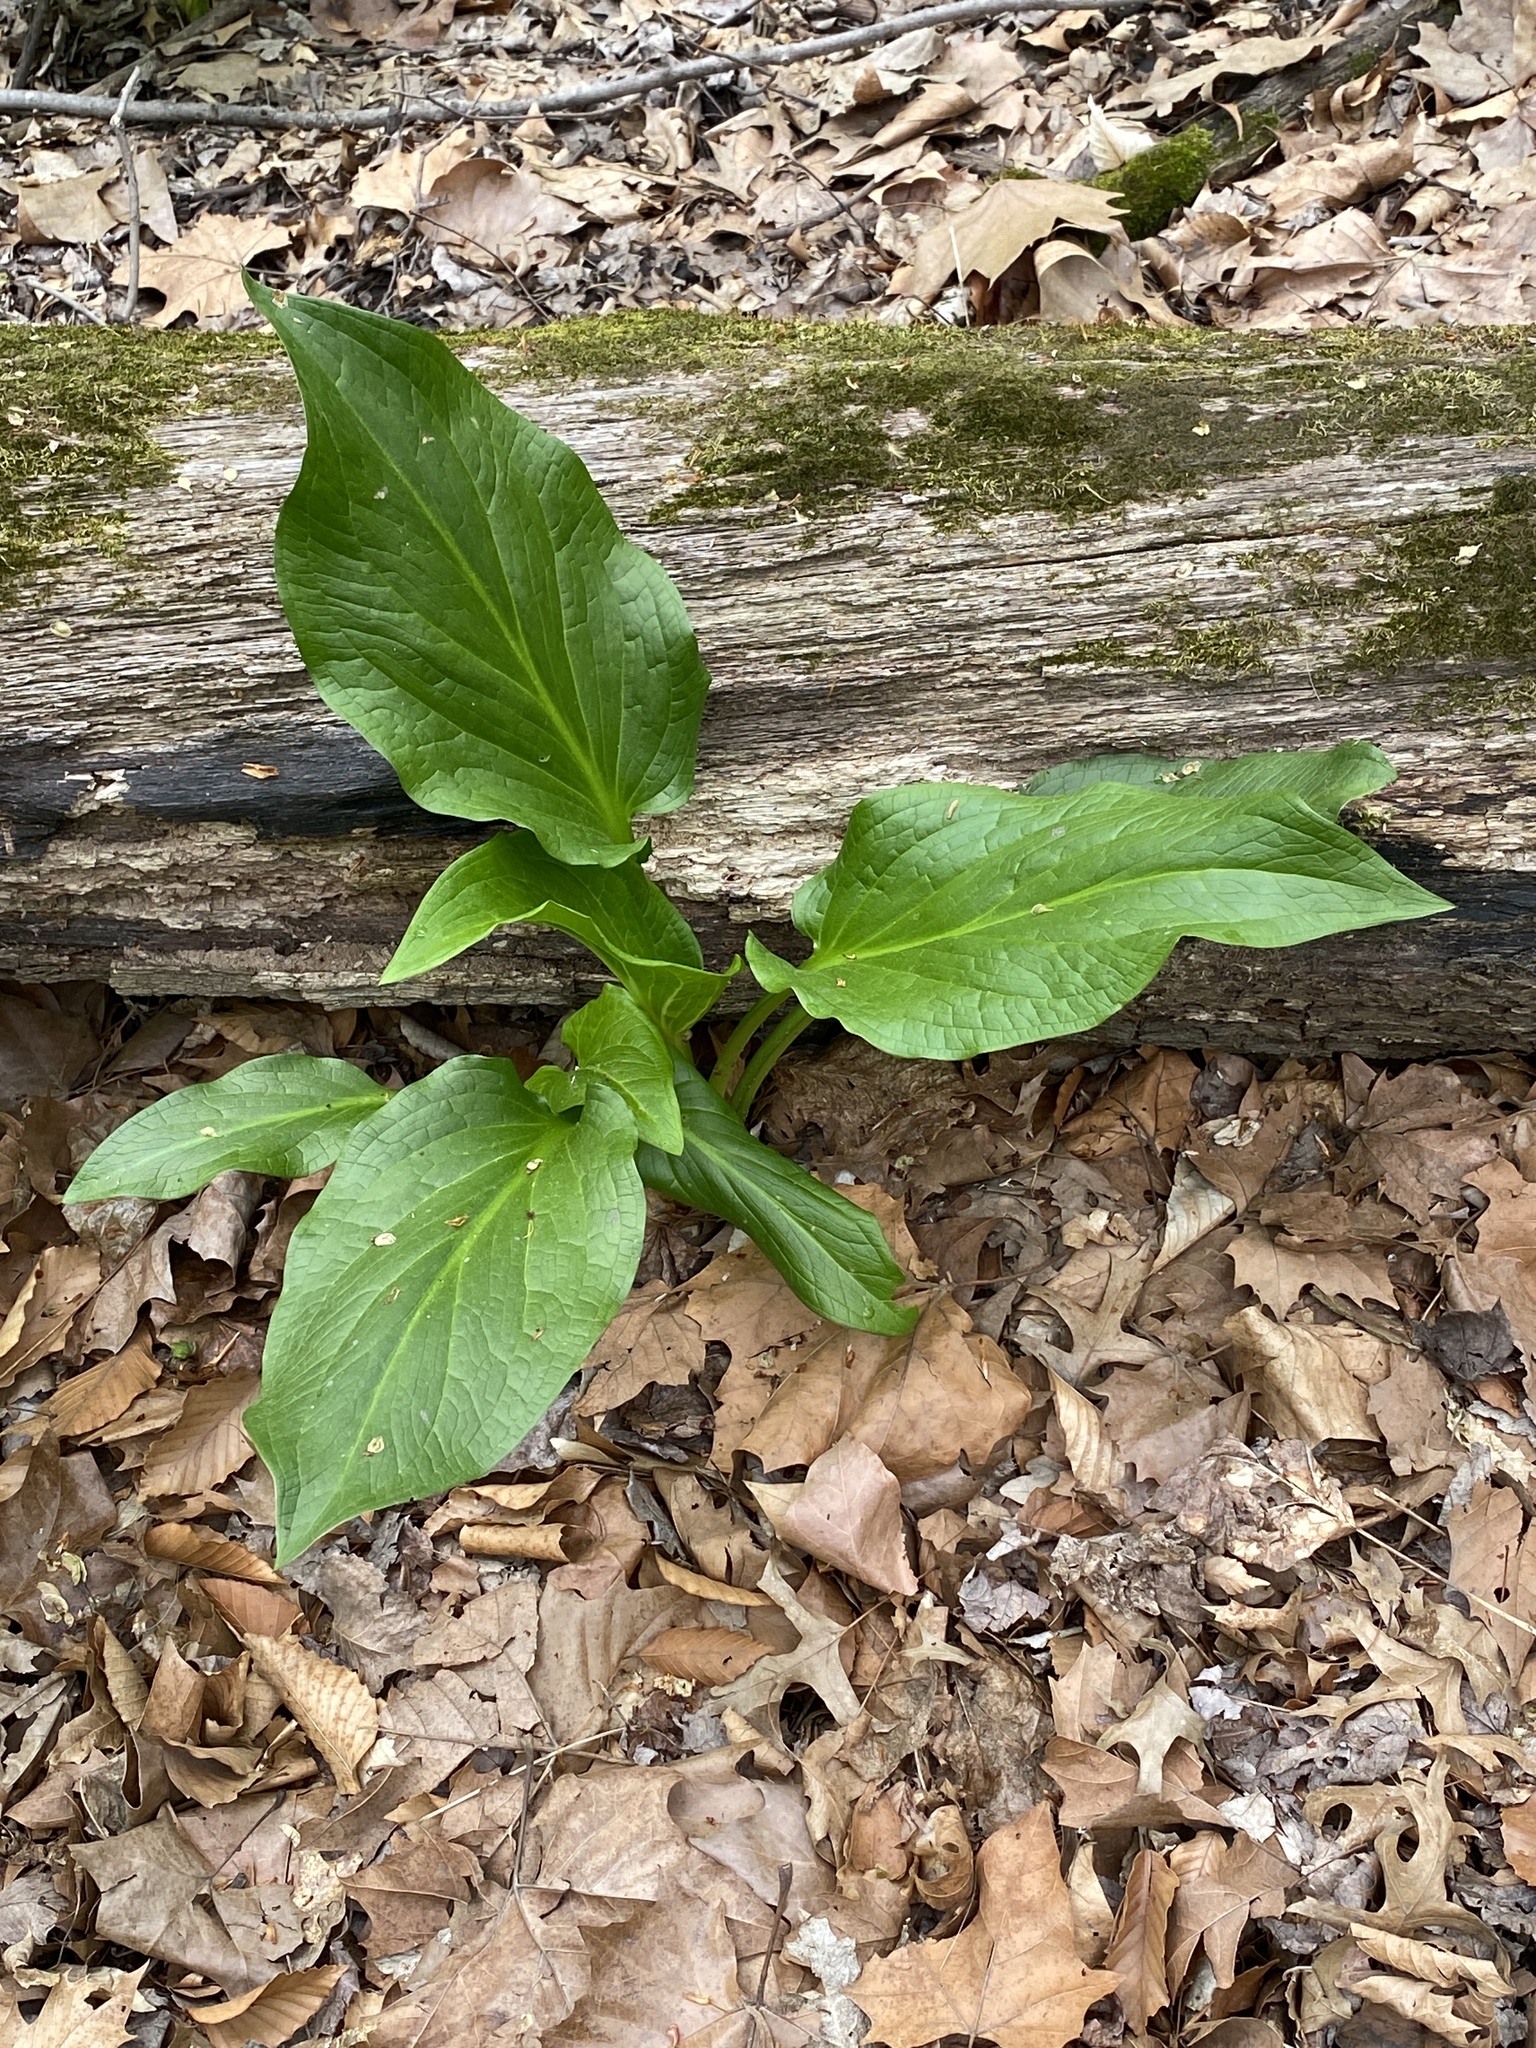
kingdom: Plantae
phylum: Tracheophyta
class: Liliopsida
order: Alismatales
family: Araceae
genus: Symplocarpus
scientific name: Symplocarpus foetidus
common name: Eastern skunk cabbage
